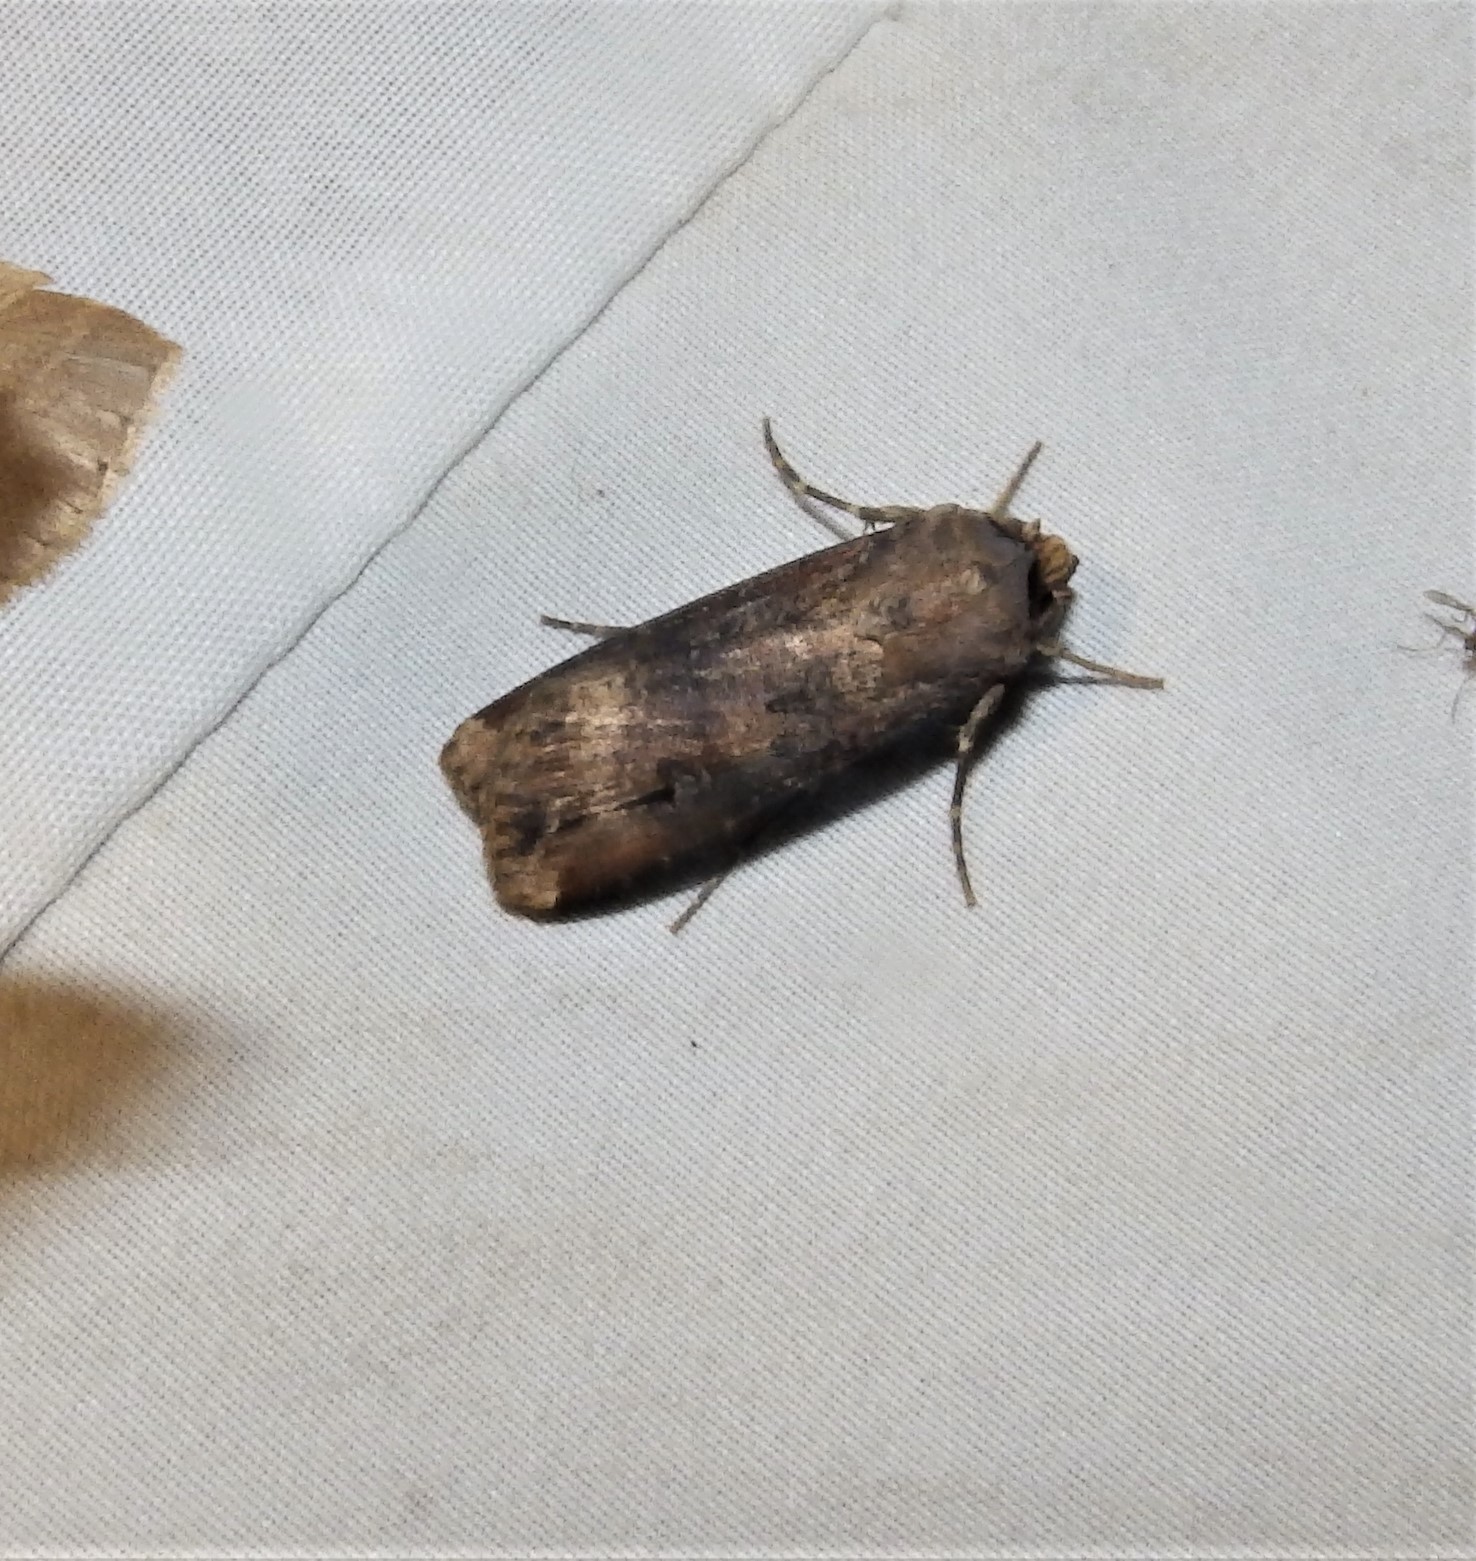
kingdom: Animalia
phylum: Arthropoda
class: Insecta
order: Lepidoptera
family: Noctuidae
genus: Agrotis
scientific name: Agrotis ipsilon
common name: Dark sword-grass
